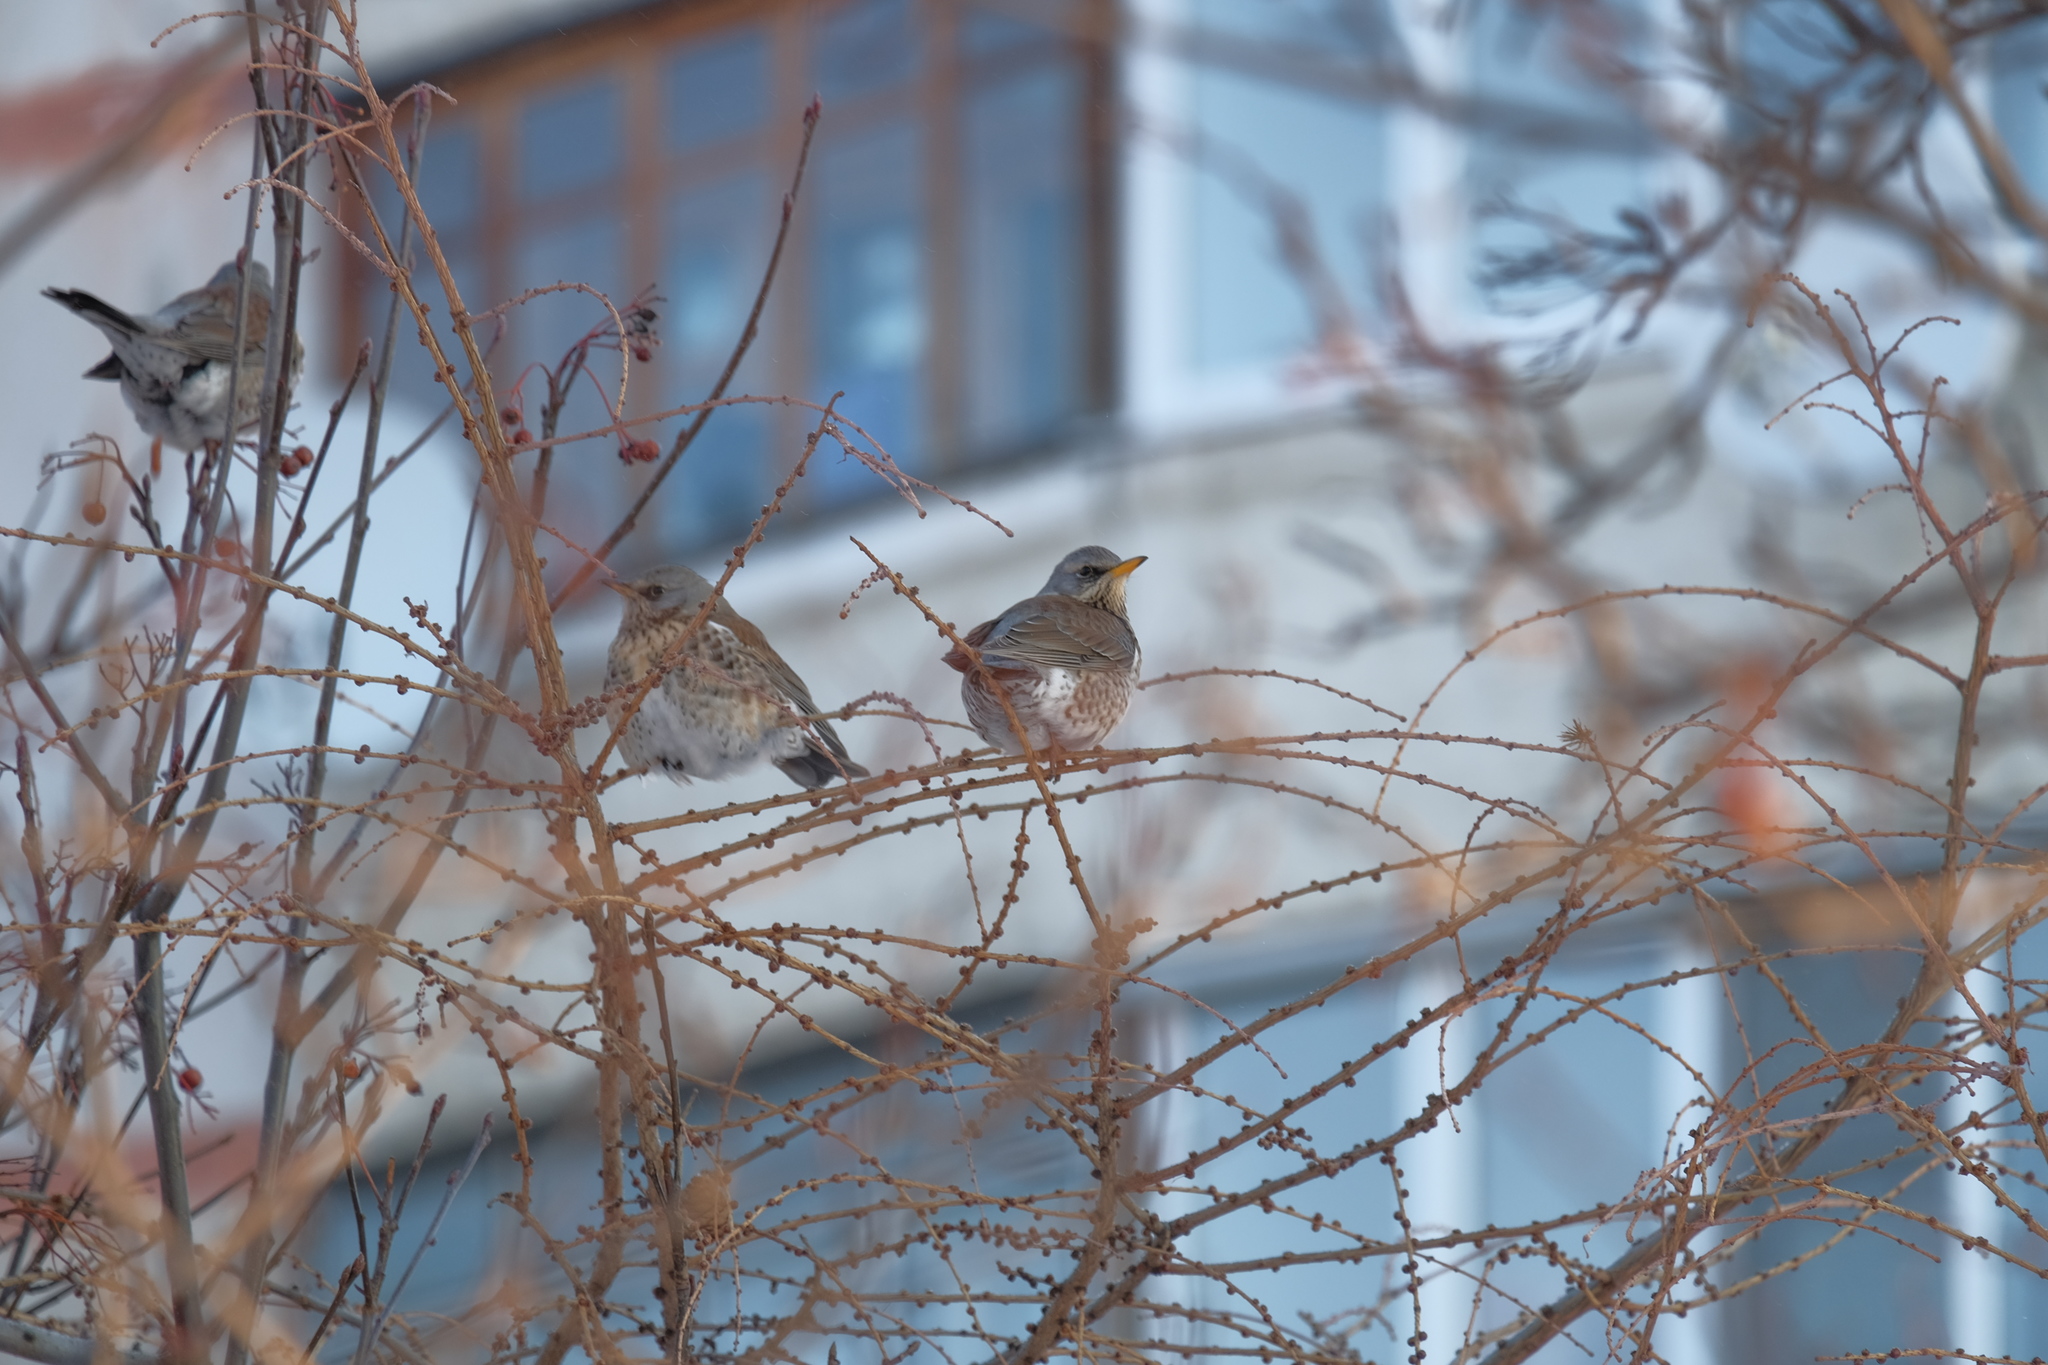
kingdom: Animalia
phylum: Chordata
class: Aves
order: Passeriformes
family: Turdidae
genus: Turdus
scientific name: Turdus pilaris
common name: Fieldfare
